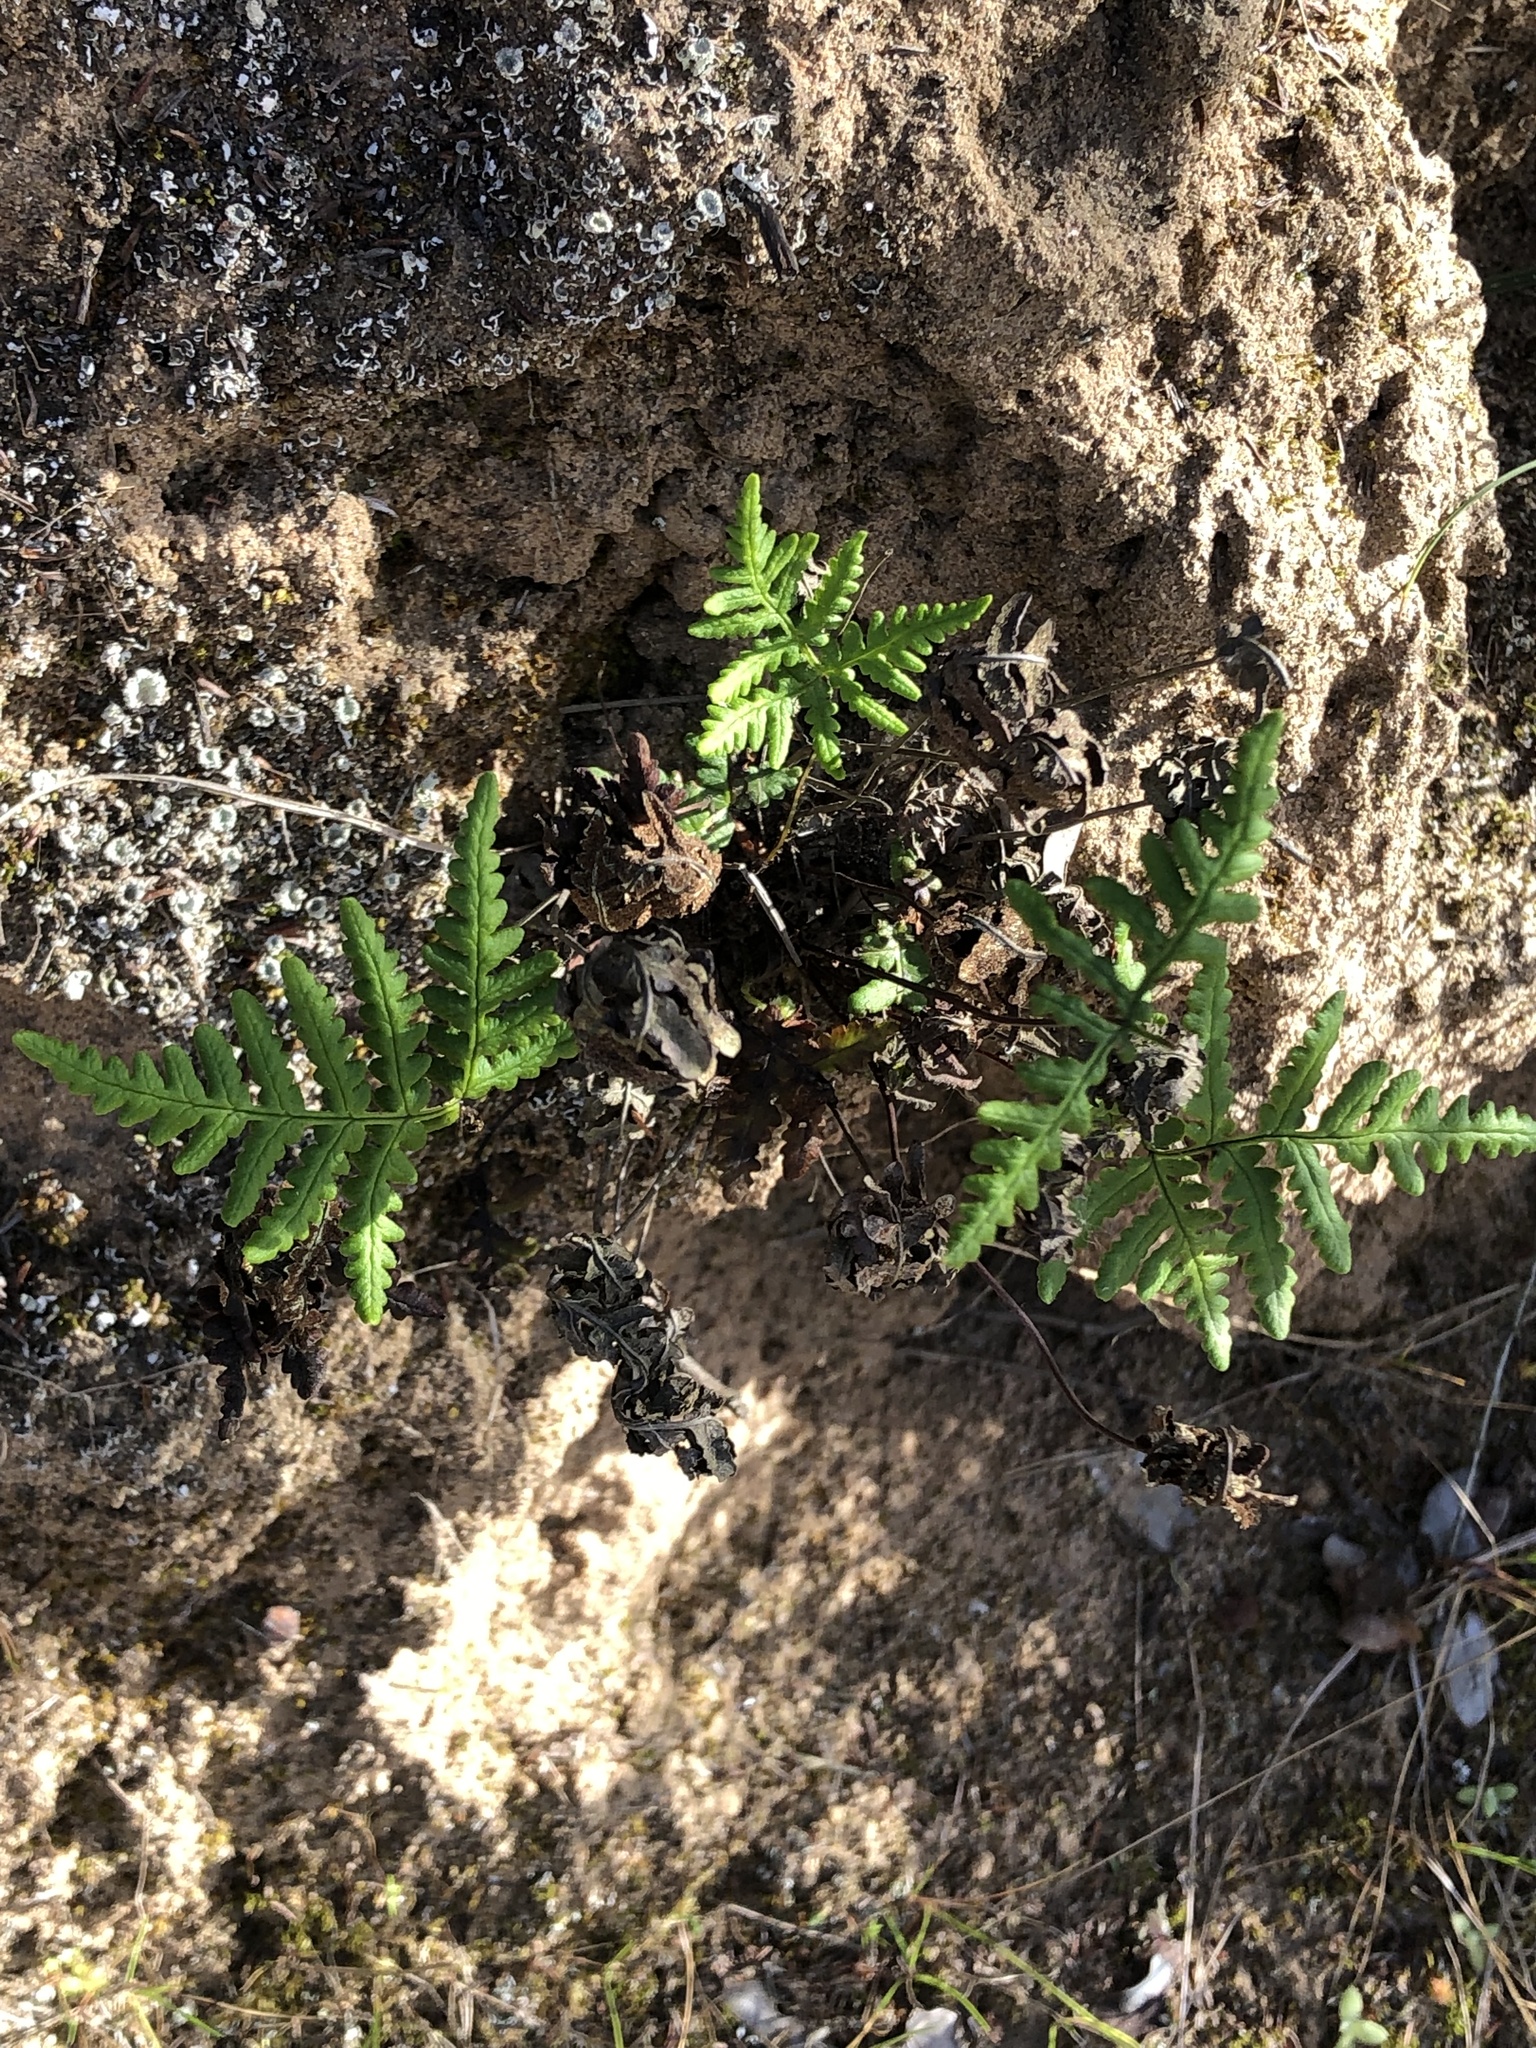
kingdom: Plantae
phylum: Tracheophyta
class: Polypodiopsida
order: Polypodiales
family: Pteridaceae
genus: Pentagramma
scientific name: Pentagramma triangularis
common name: Gold fern
